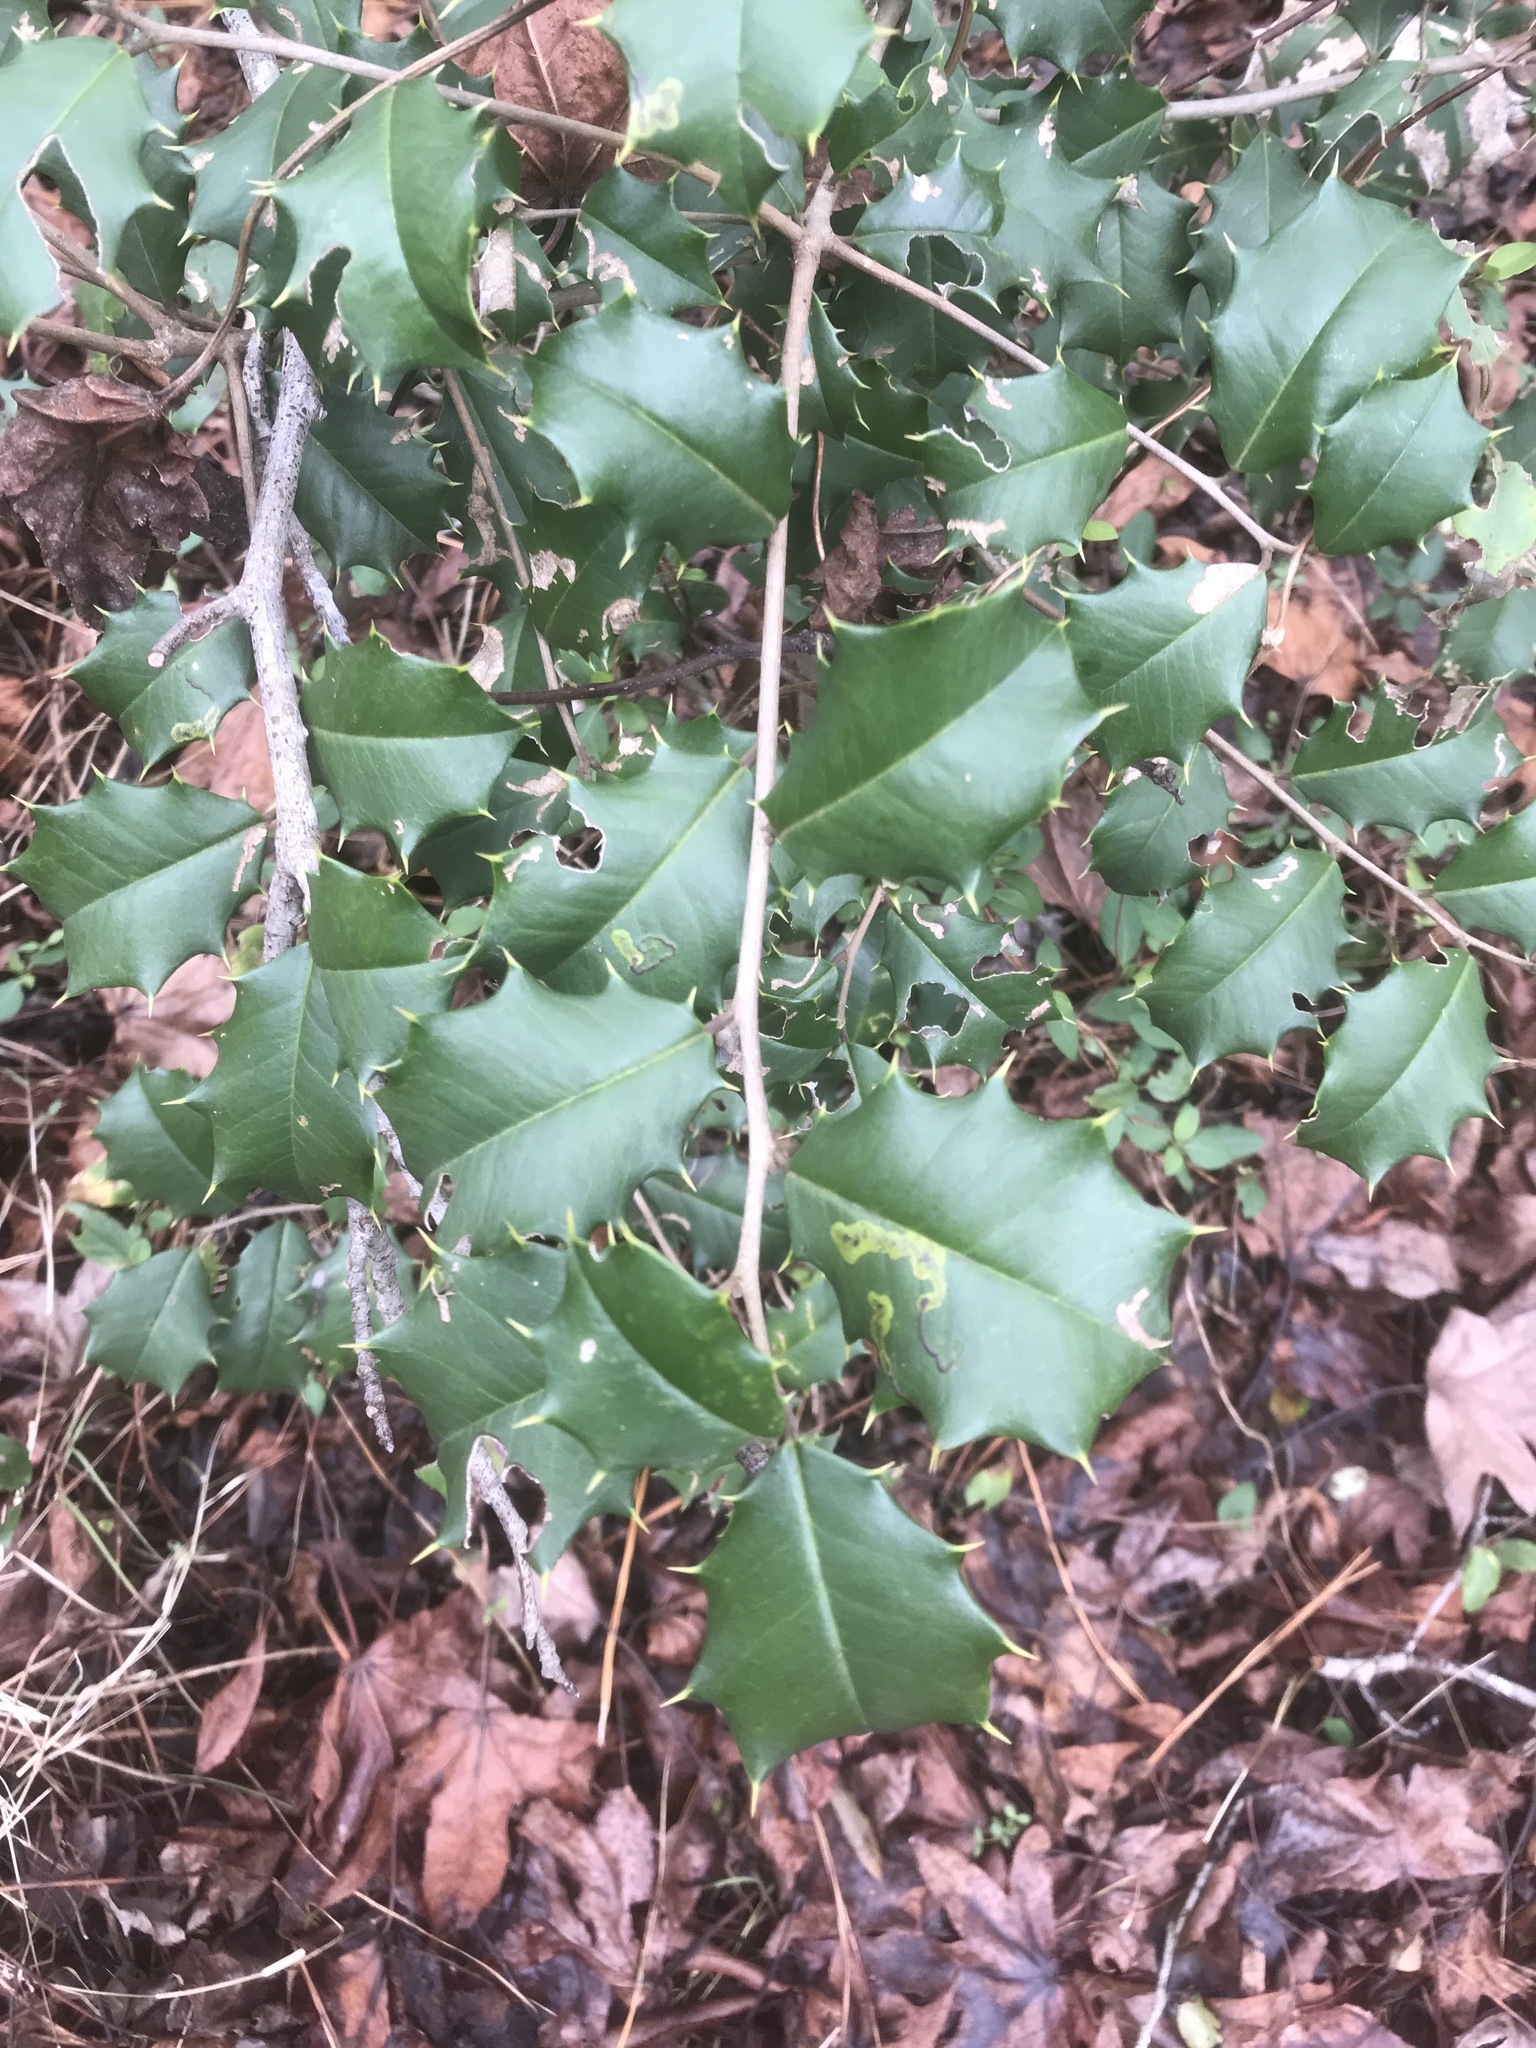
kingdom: Plantae
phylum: Tracheophyta
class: Magnoliopsida
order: Aquifoliales
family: Aquifoliaceae
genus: Ilex
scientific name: Ilex opaca
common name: American holly
